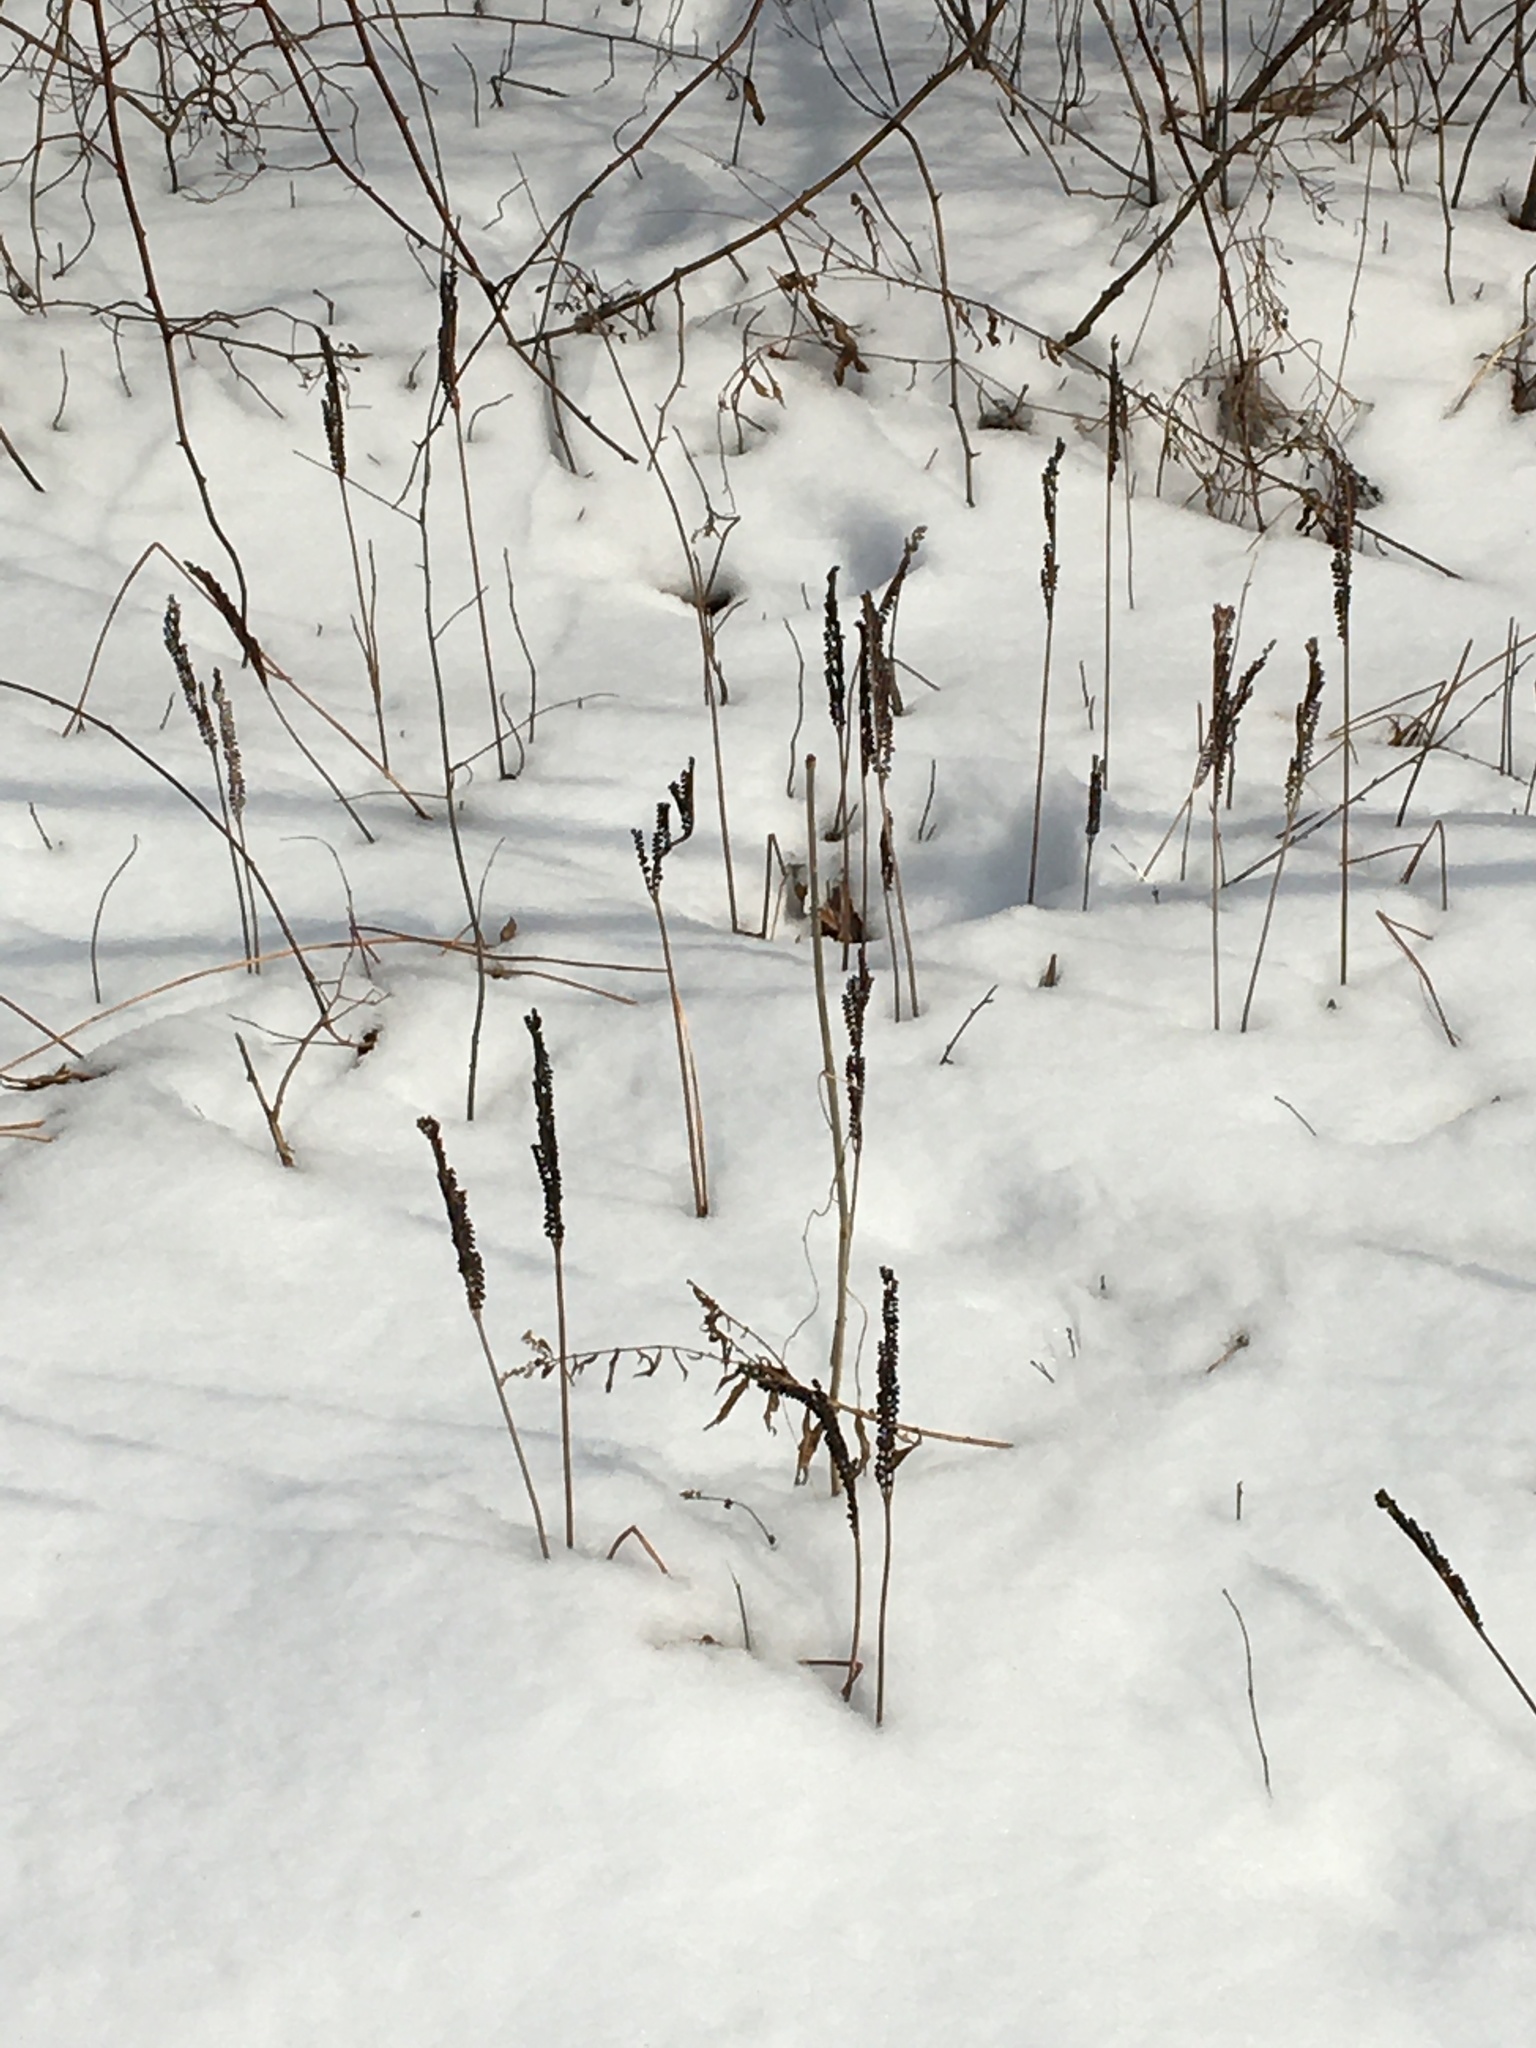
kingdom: Plantae
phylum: Tracheophyta
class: Polypodiopsida
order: Polypodiales
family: Onocleaceae
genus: Onoclea
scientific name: Onoclea sensibilis
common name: Sensitive fern
